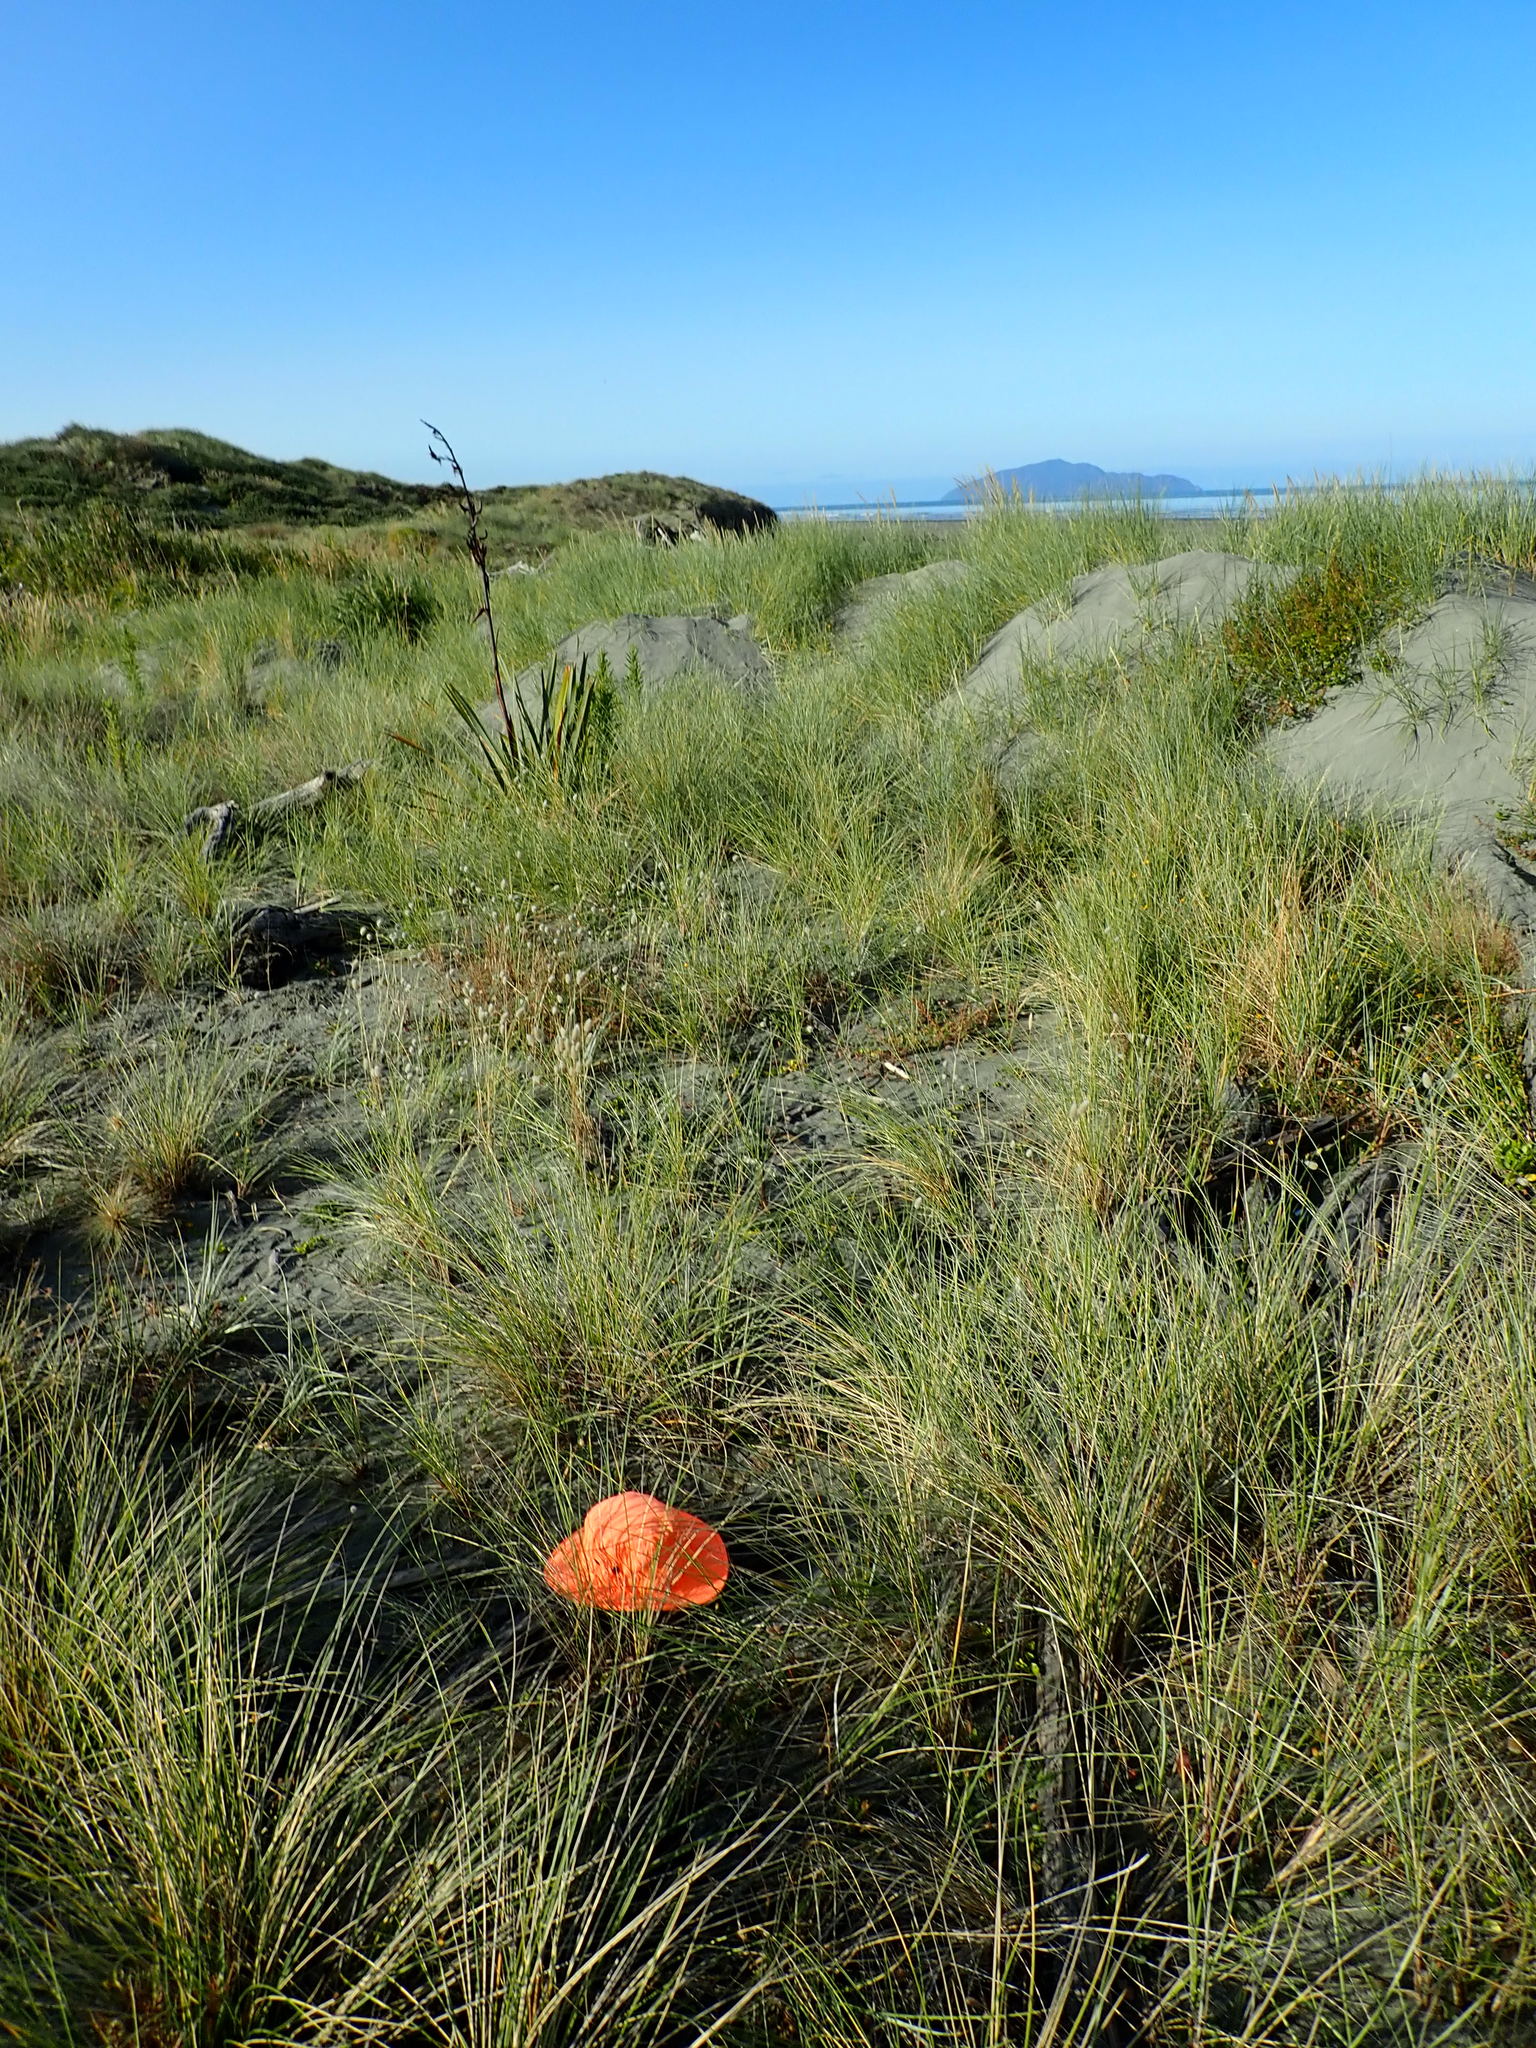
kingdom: Animalia
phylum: Chordata
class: Squamata
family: Scincidae
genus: Oligosoma
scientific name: Oligosoma polychroma
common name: Common new zealand skink
